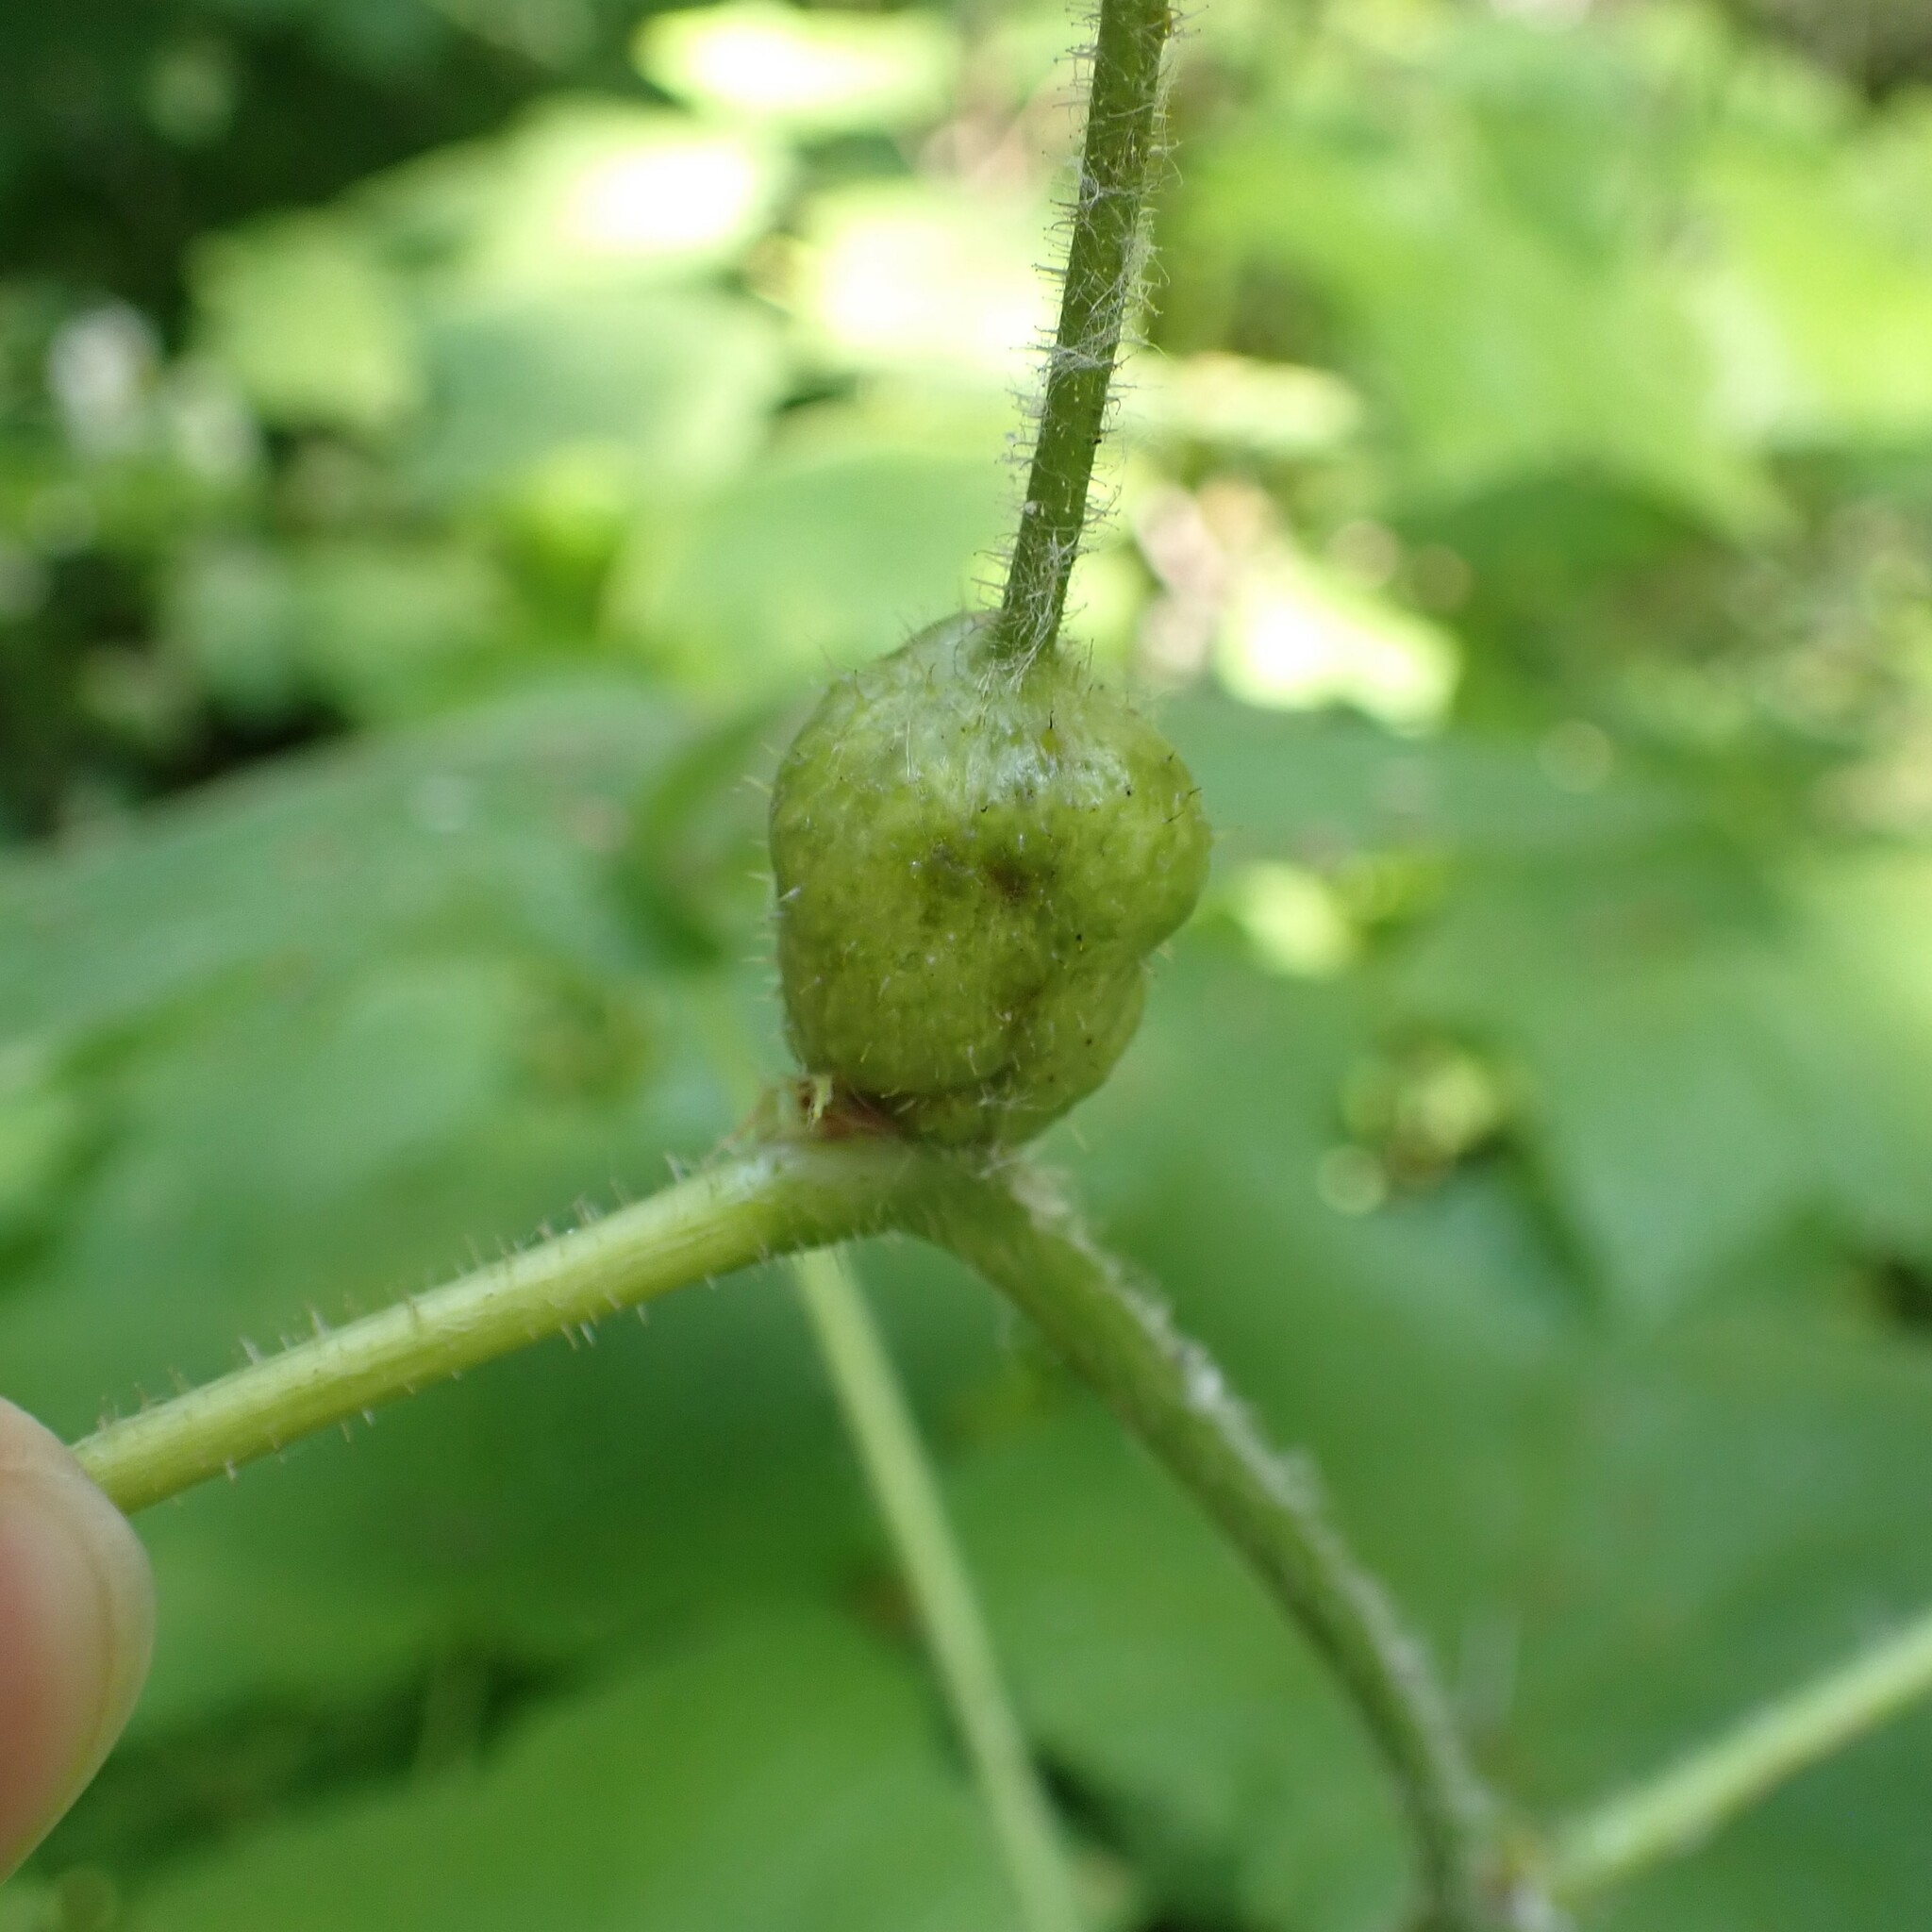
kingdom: Animalia
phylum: Arthropoda
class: Insecta
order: Hymenoptera
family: Cynipidae
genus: Diastrophus
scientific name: Diastrophus
